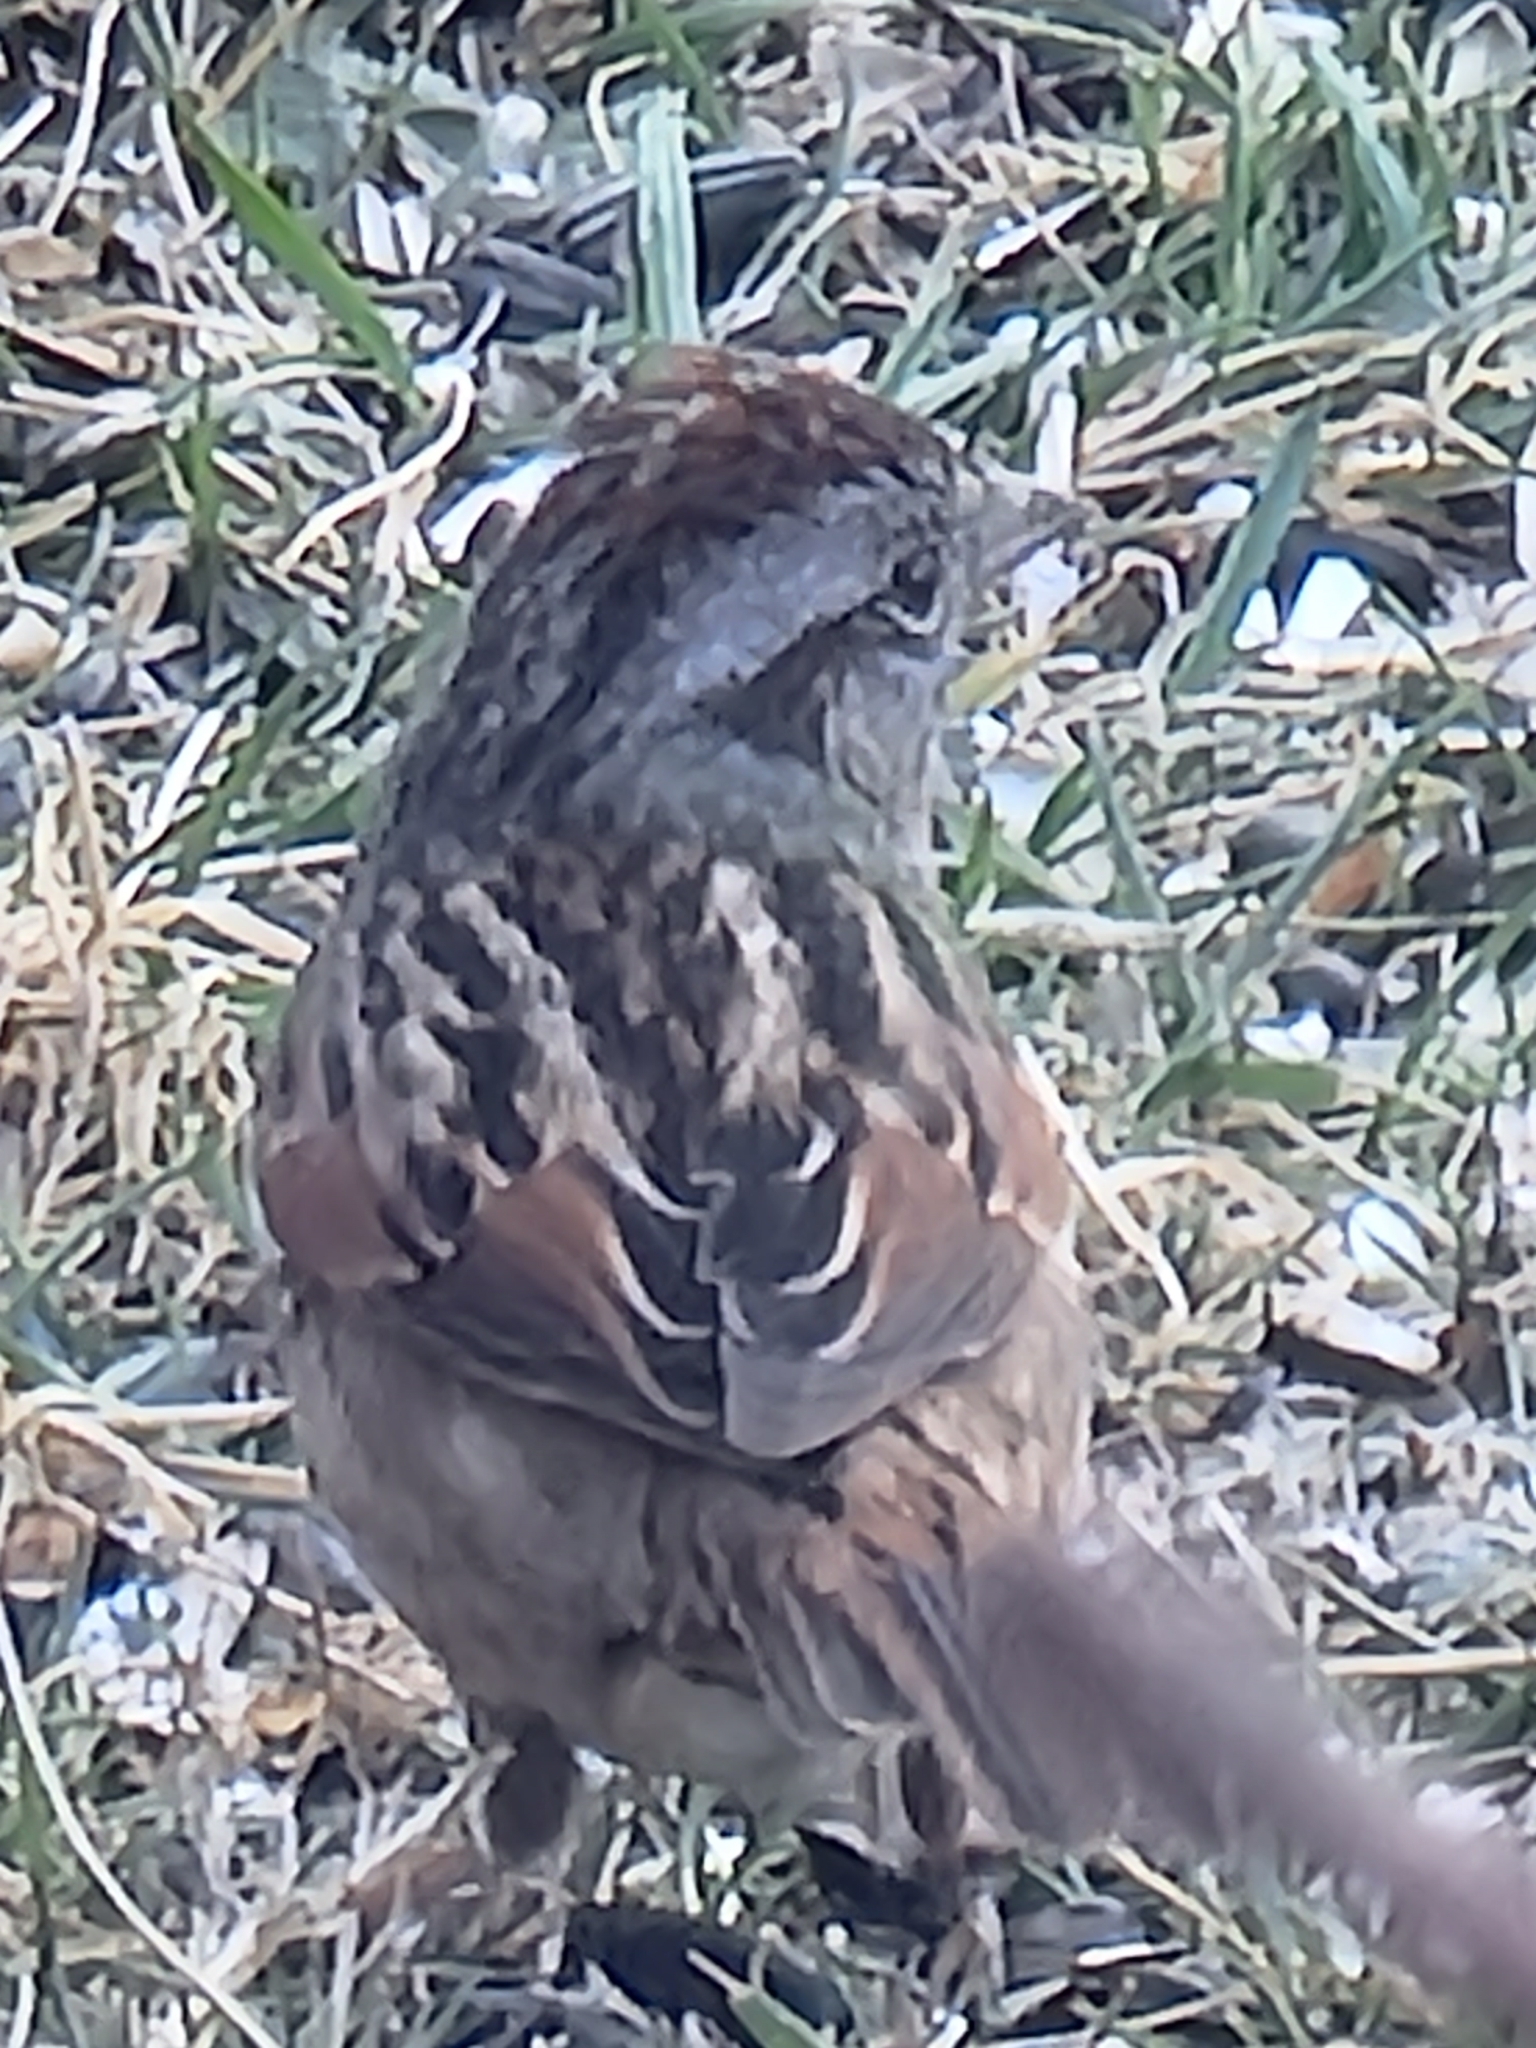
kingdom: Animalia
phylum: Chordata
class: Aves
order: Passeriformes
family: Passerellidae
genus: Melospiza
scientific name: Melospiza georgiana
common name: Swamp sparrow
